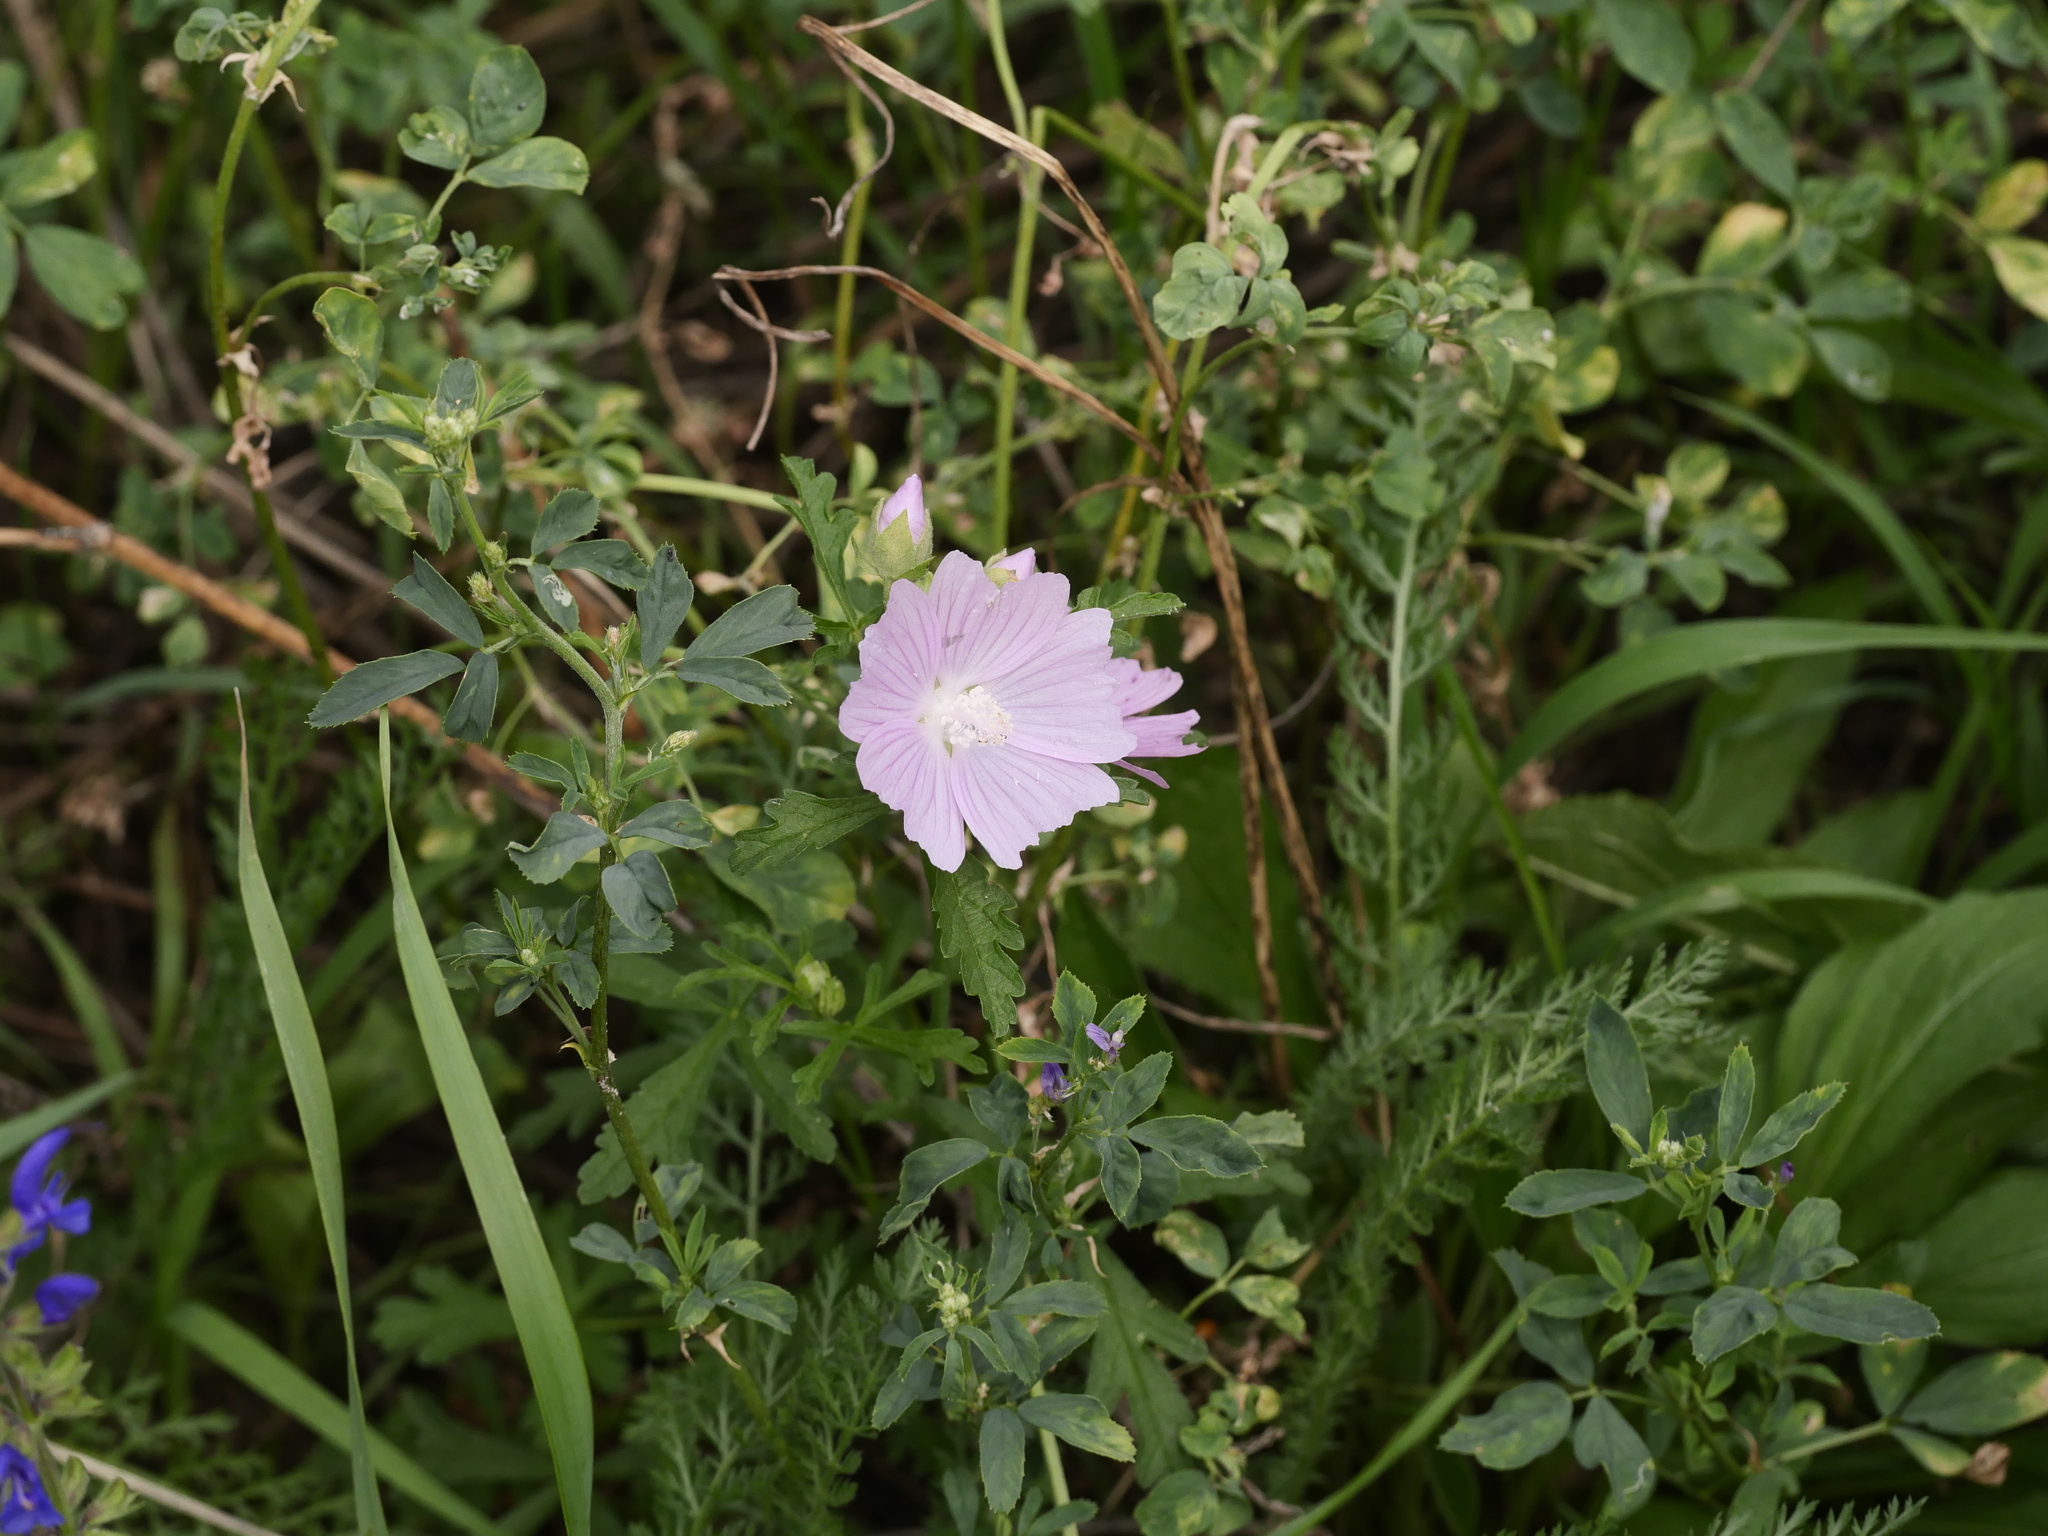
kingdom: Plantae
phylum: Tracheophyta
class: Magnoliopsida
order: Malvales
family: Malvaceae
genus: Malva
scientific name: Malva alcea
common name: Greater musk-mallow
